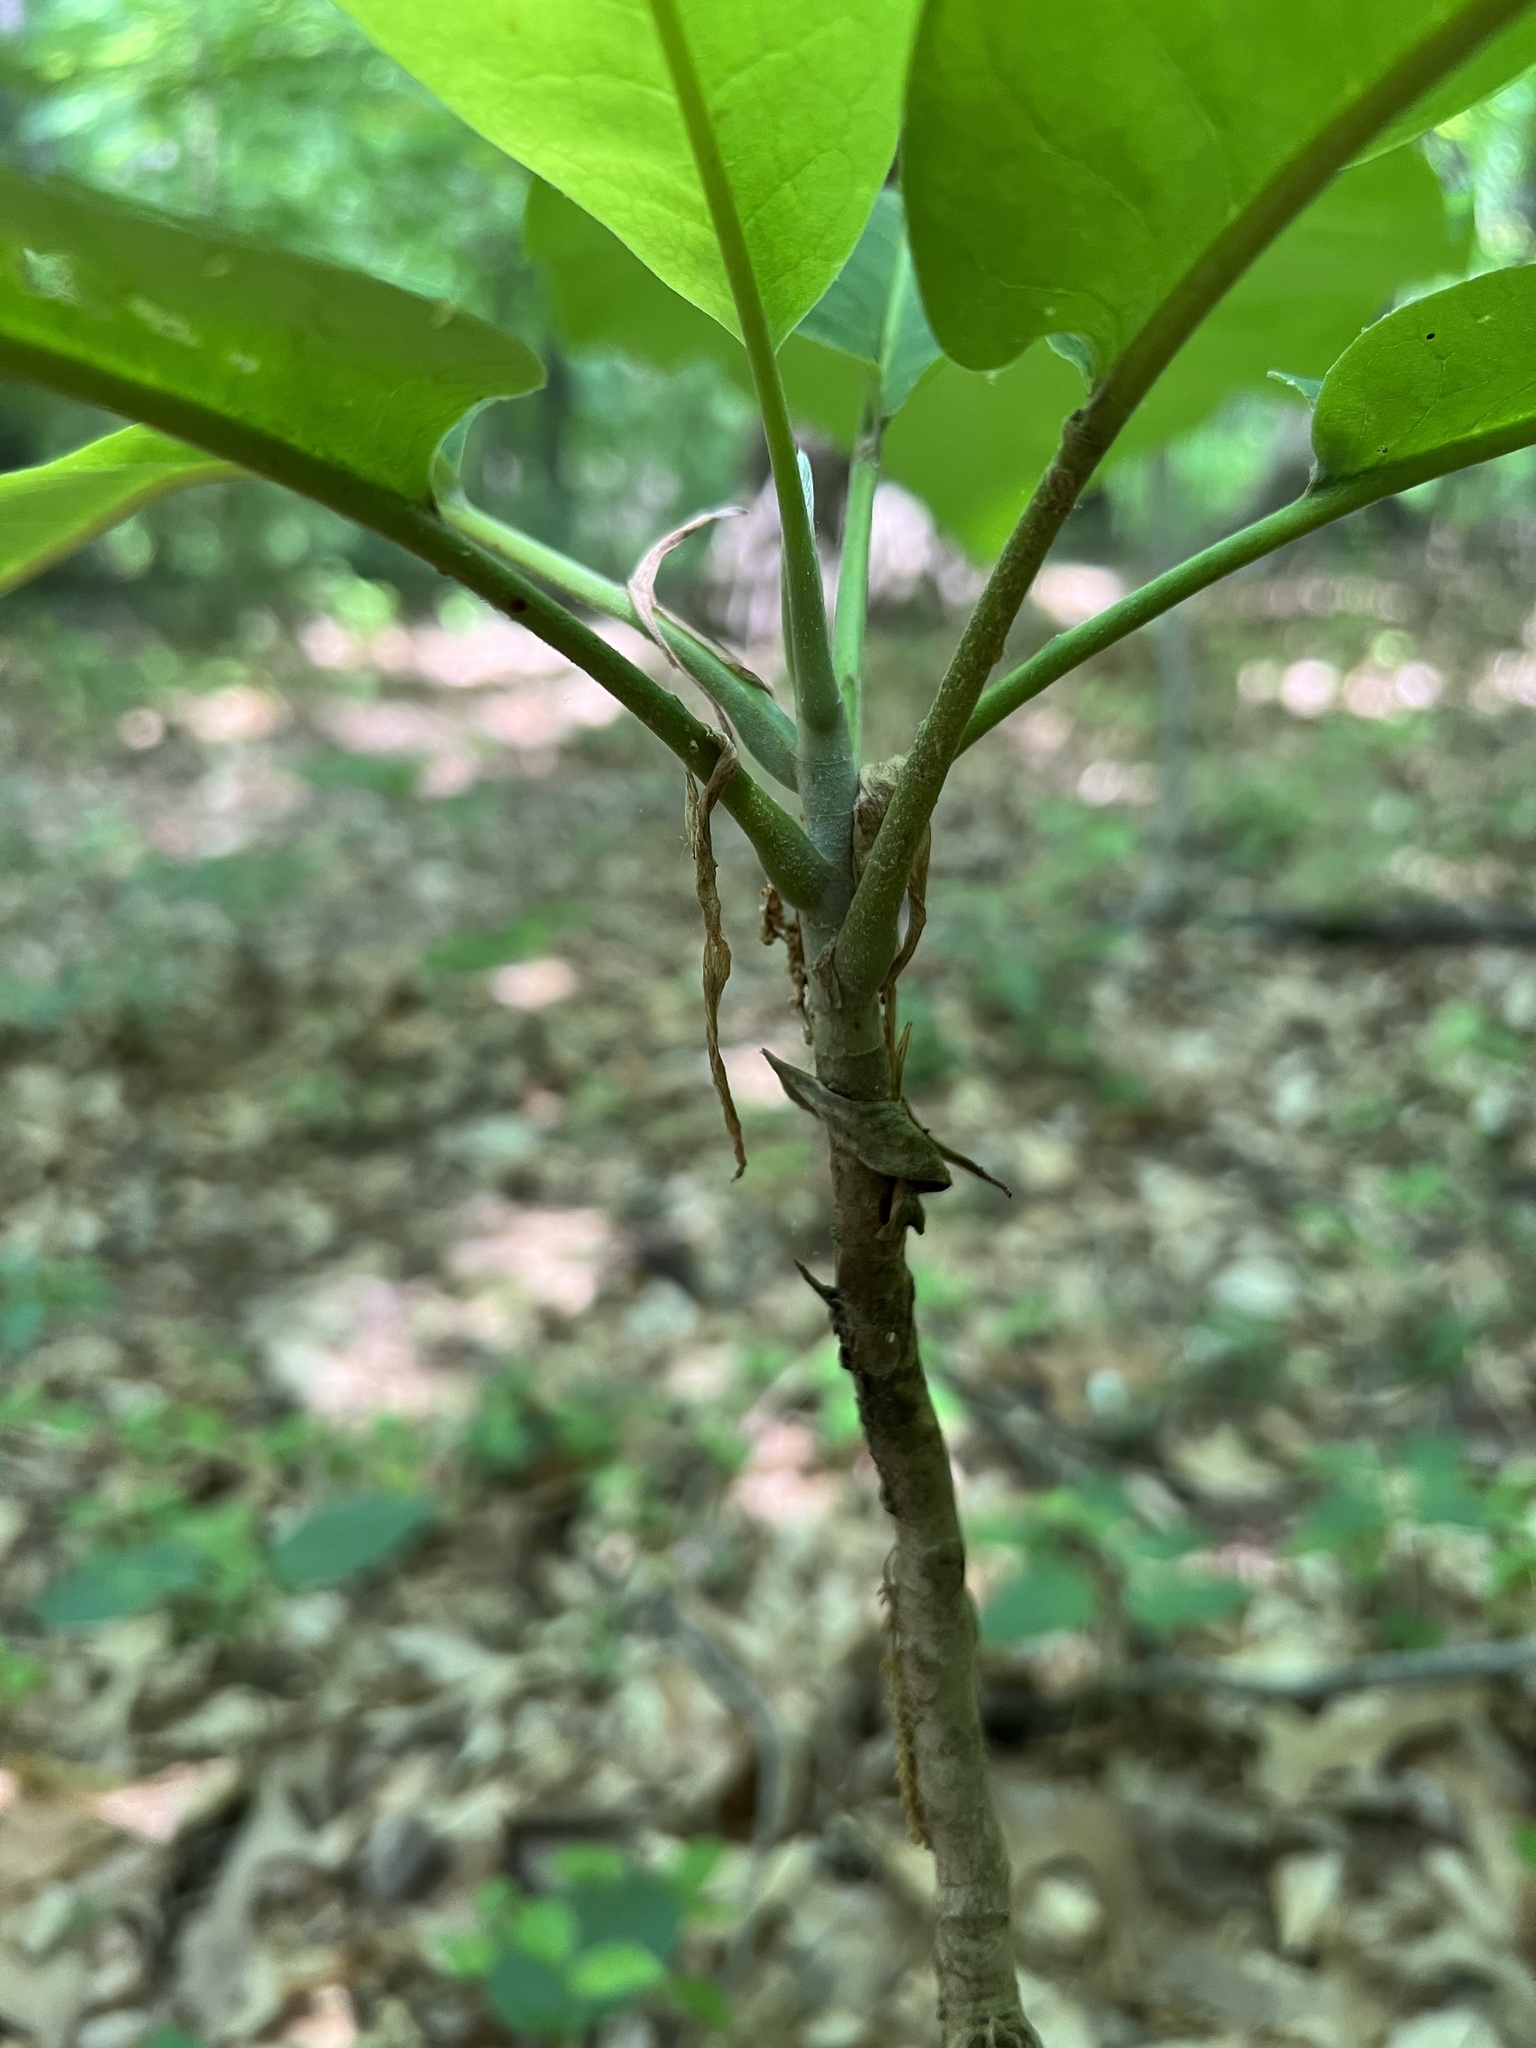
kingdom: Plantae
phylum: Tracheophyta
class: Magnoliopsida
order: Magnoliales
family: Magnoliaceae
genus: Magnolia
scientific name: Magnolia macrophylla
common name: Big-leaf magnolia
